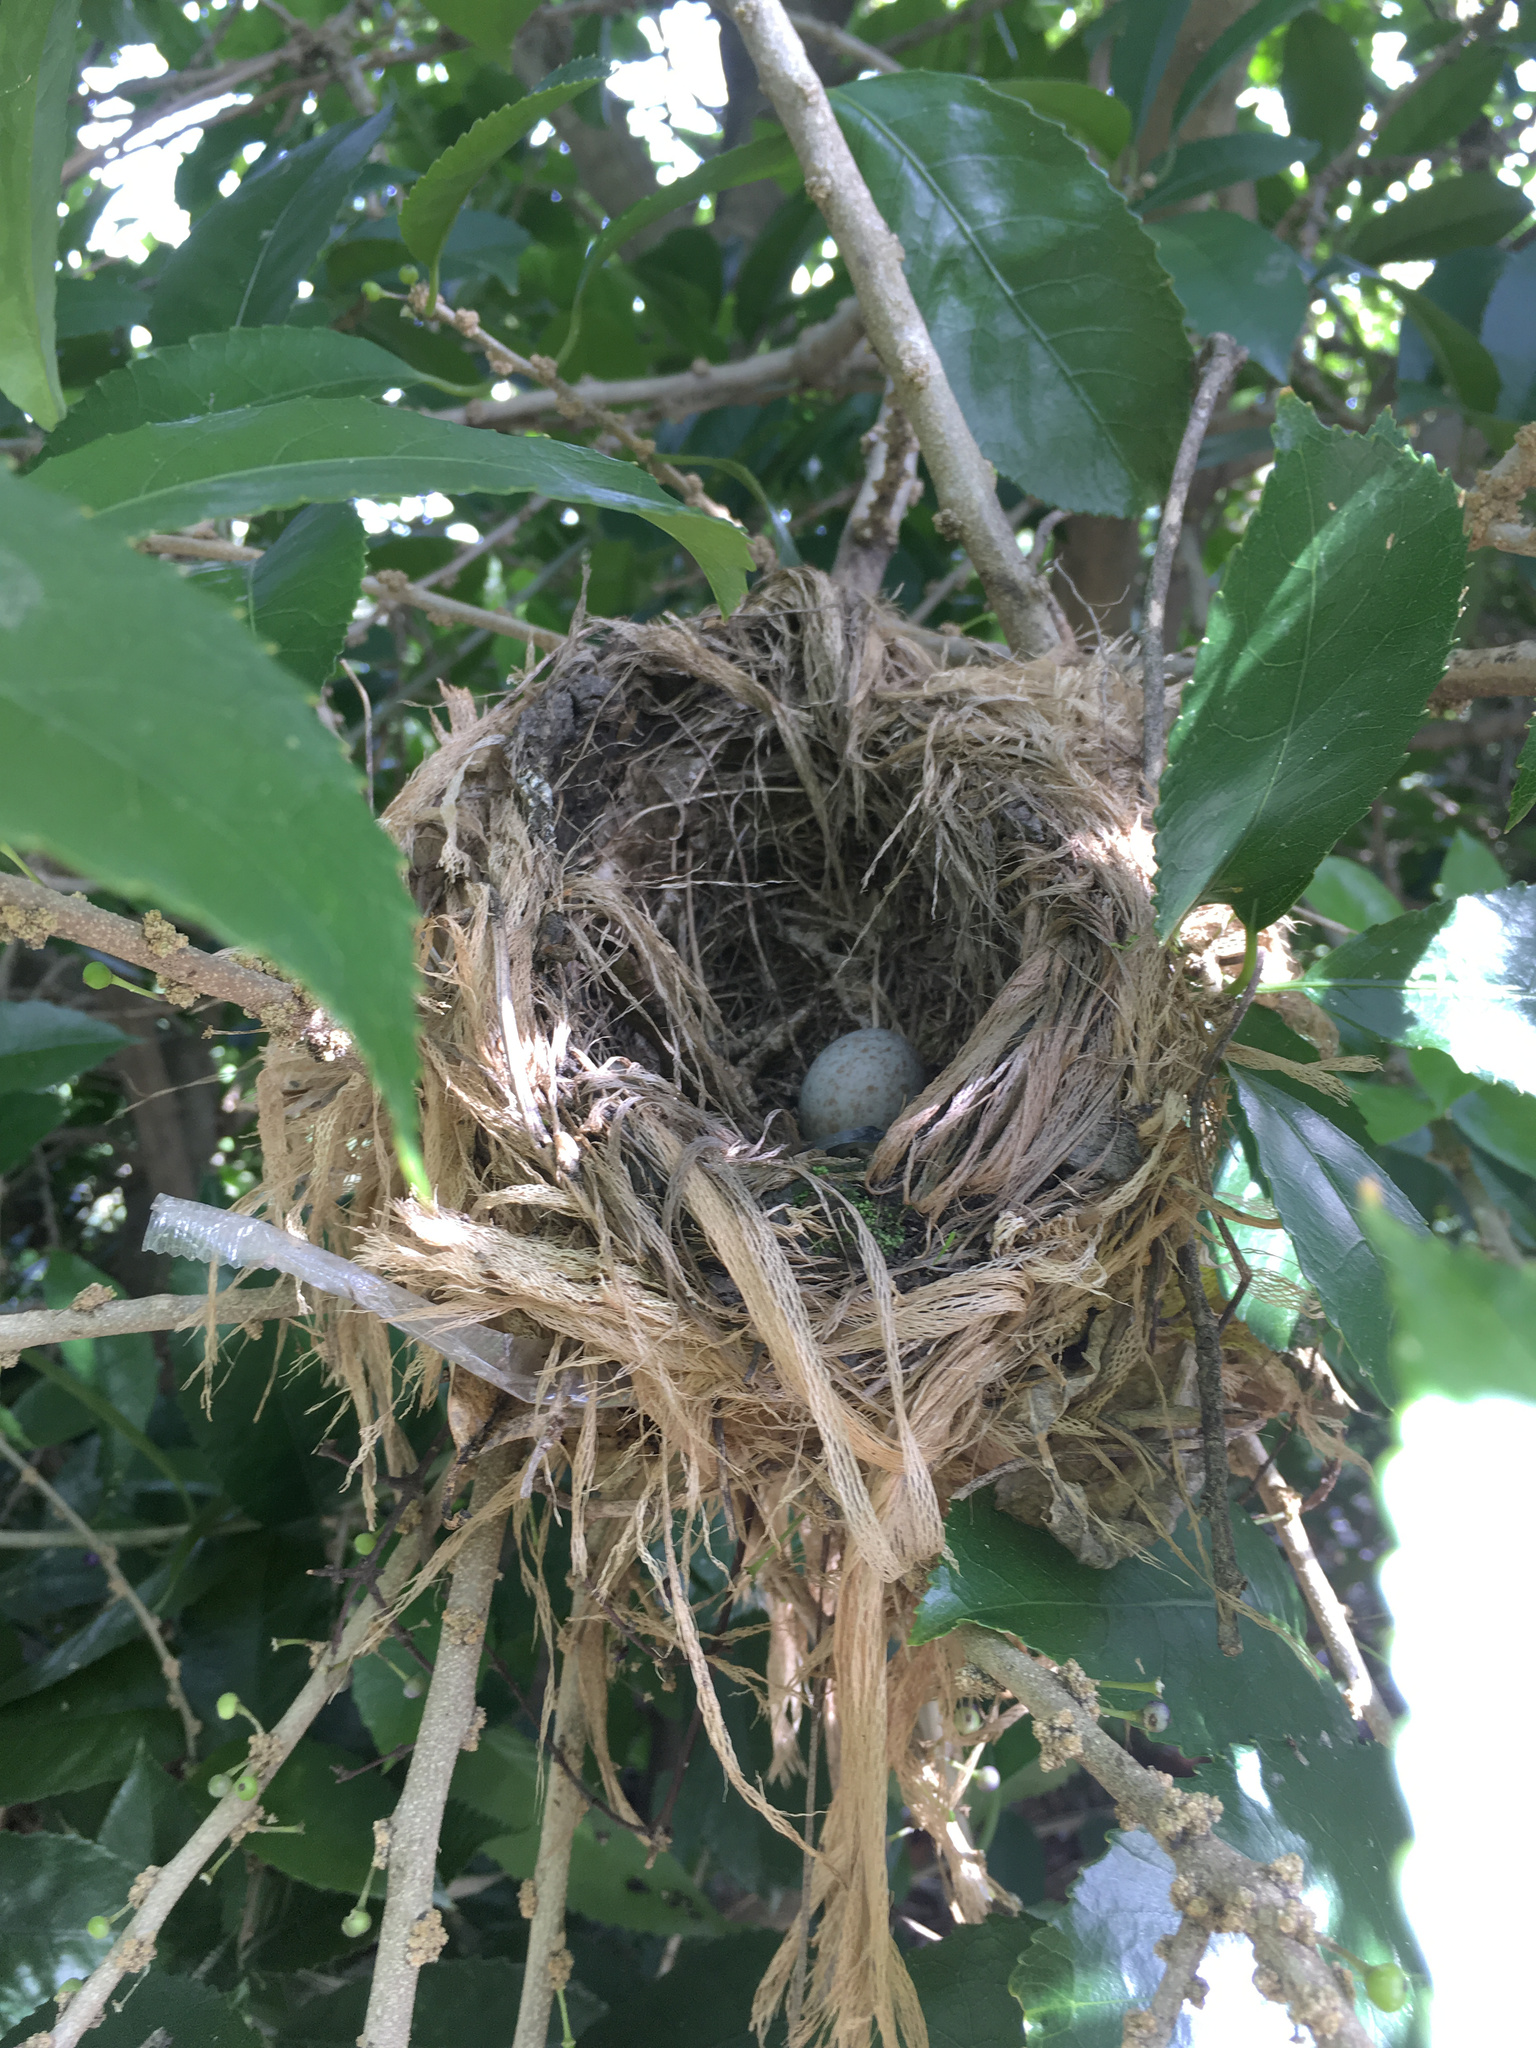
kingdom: Animalia
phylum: Chordata
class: Aves
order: Passeriformes
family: Turdidae
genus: Turdus
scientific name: Turdus merula
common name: Common blackbird
